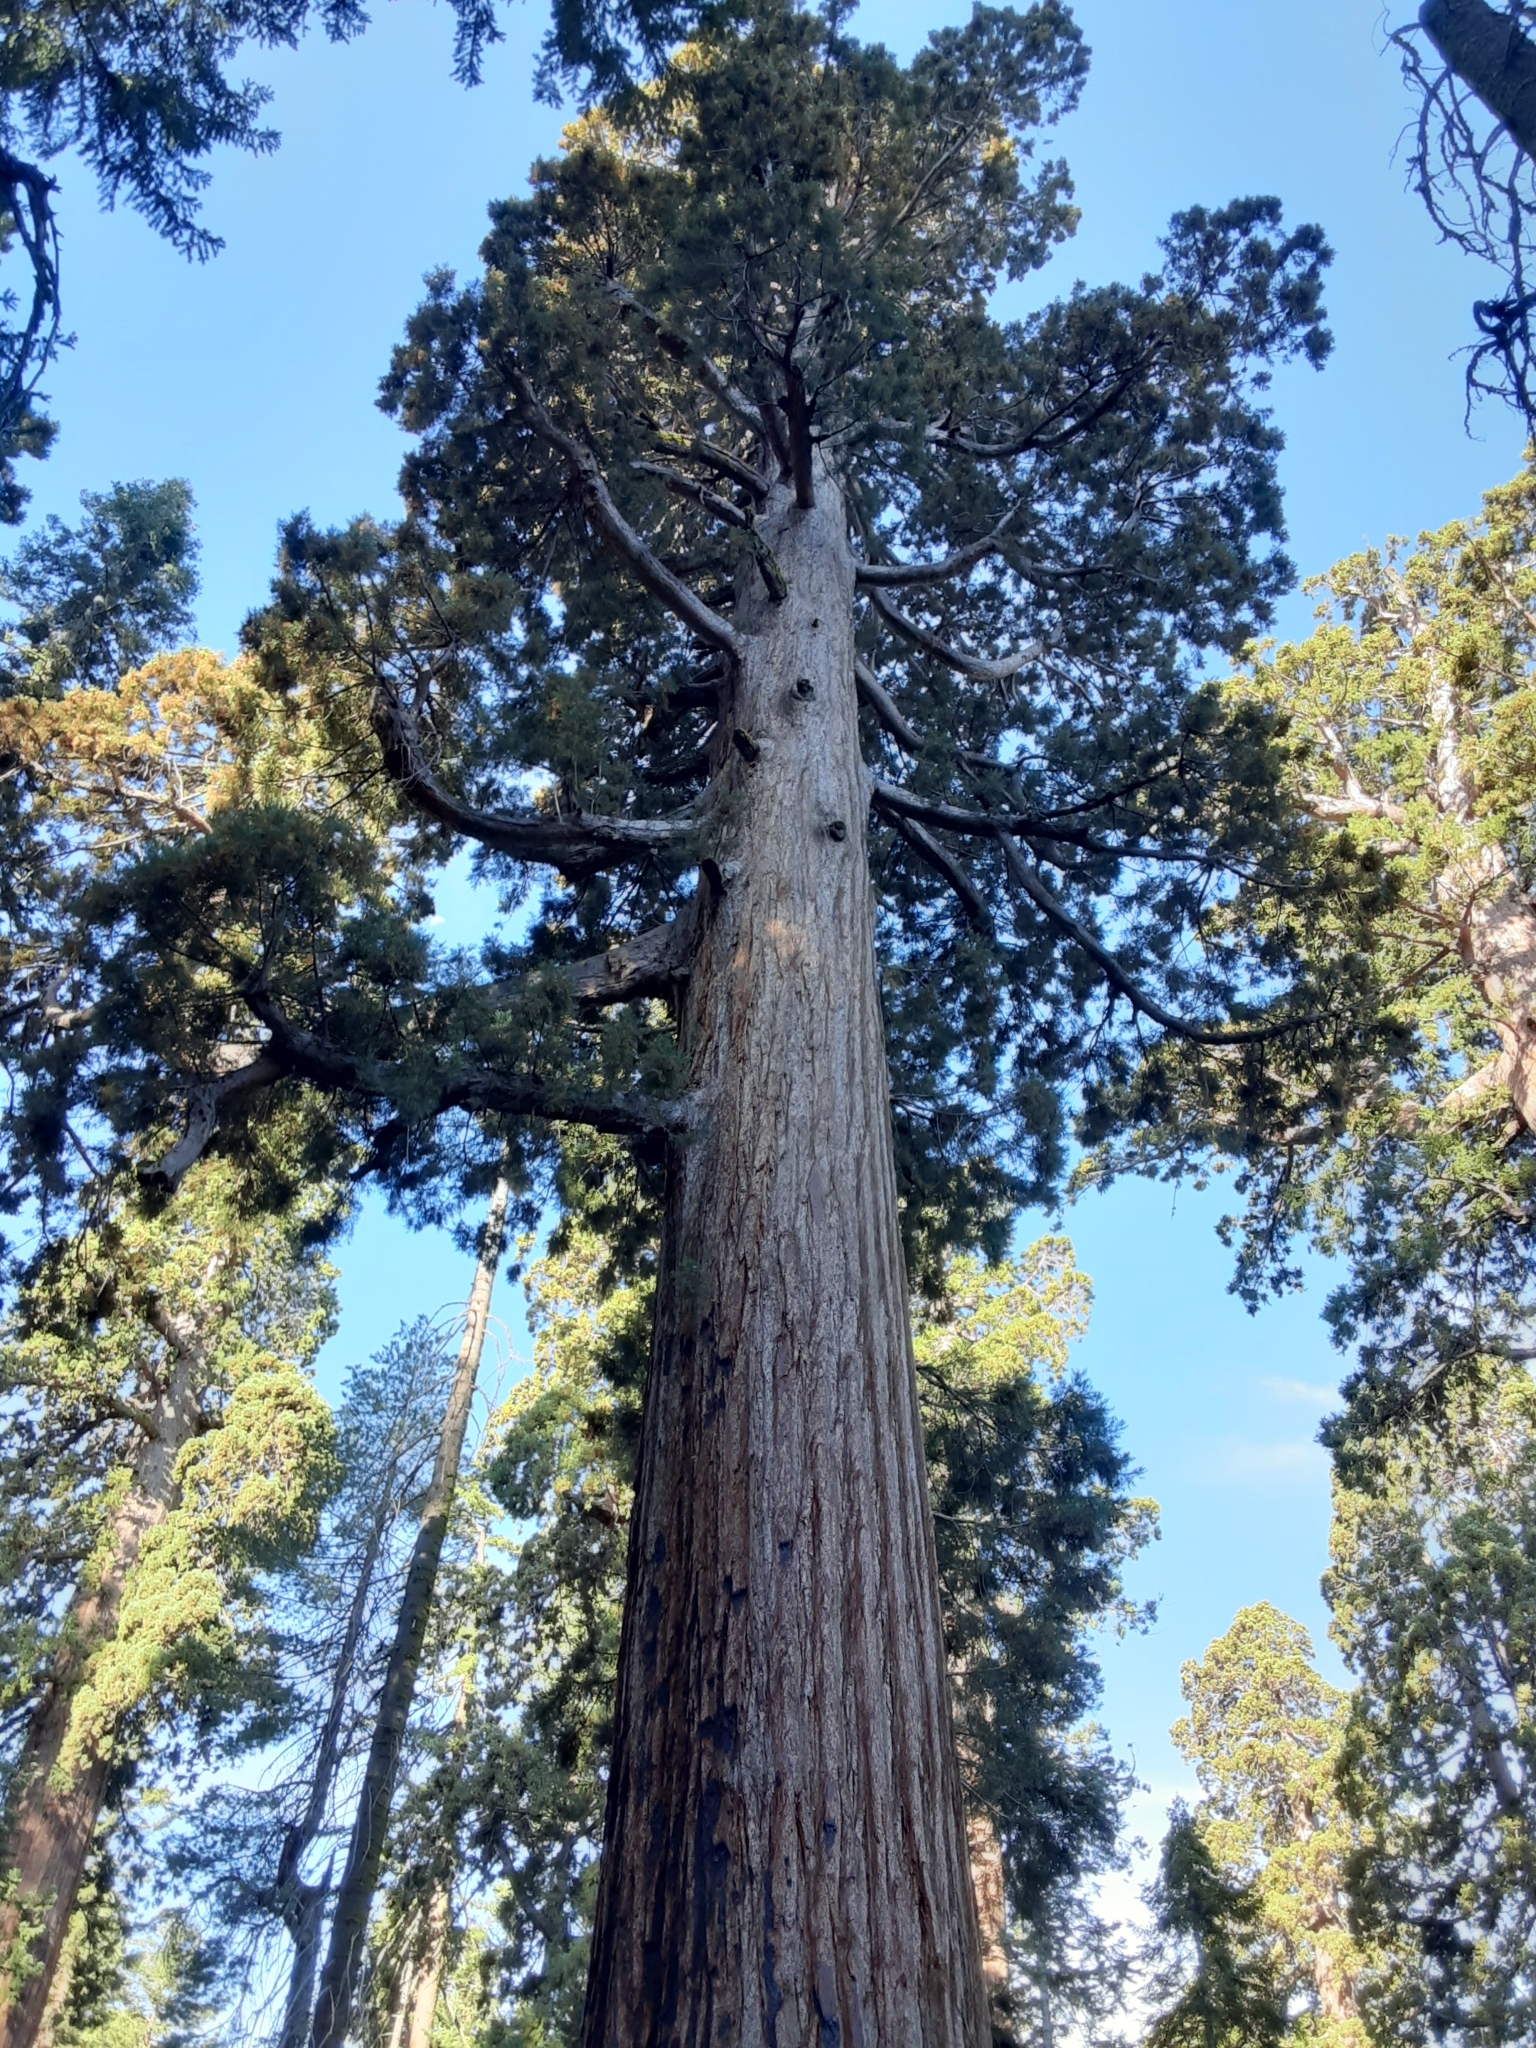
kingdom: Plantae
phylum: Tracheophyta
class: Pinopsida
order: Pinales
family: Cupressaceae
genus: Sequoiadendron
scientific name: Sequoiadendron giganteum
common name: Wellingtonia
